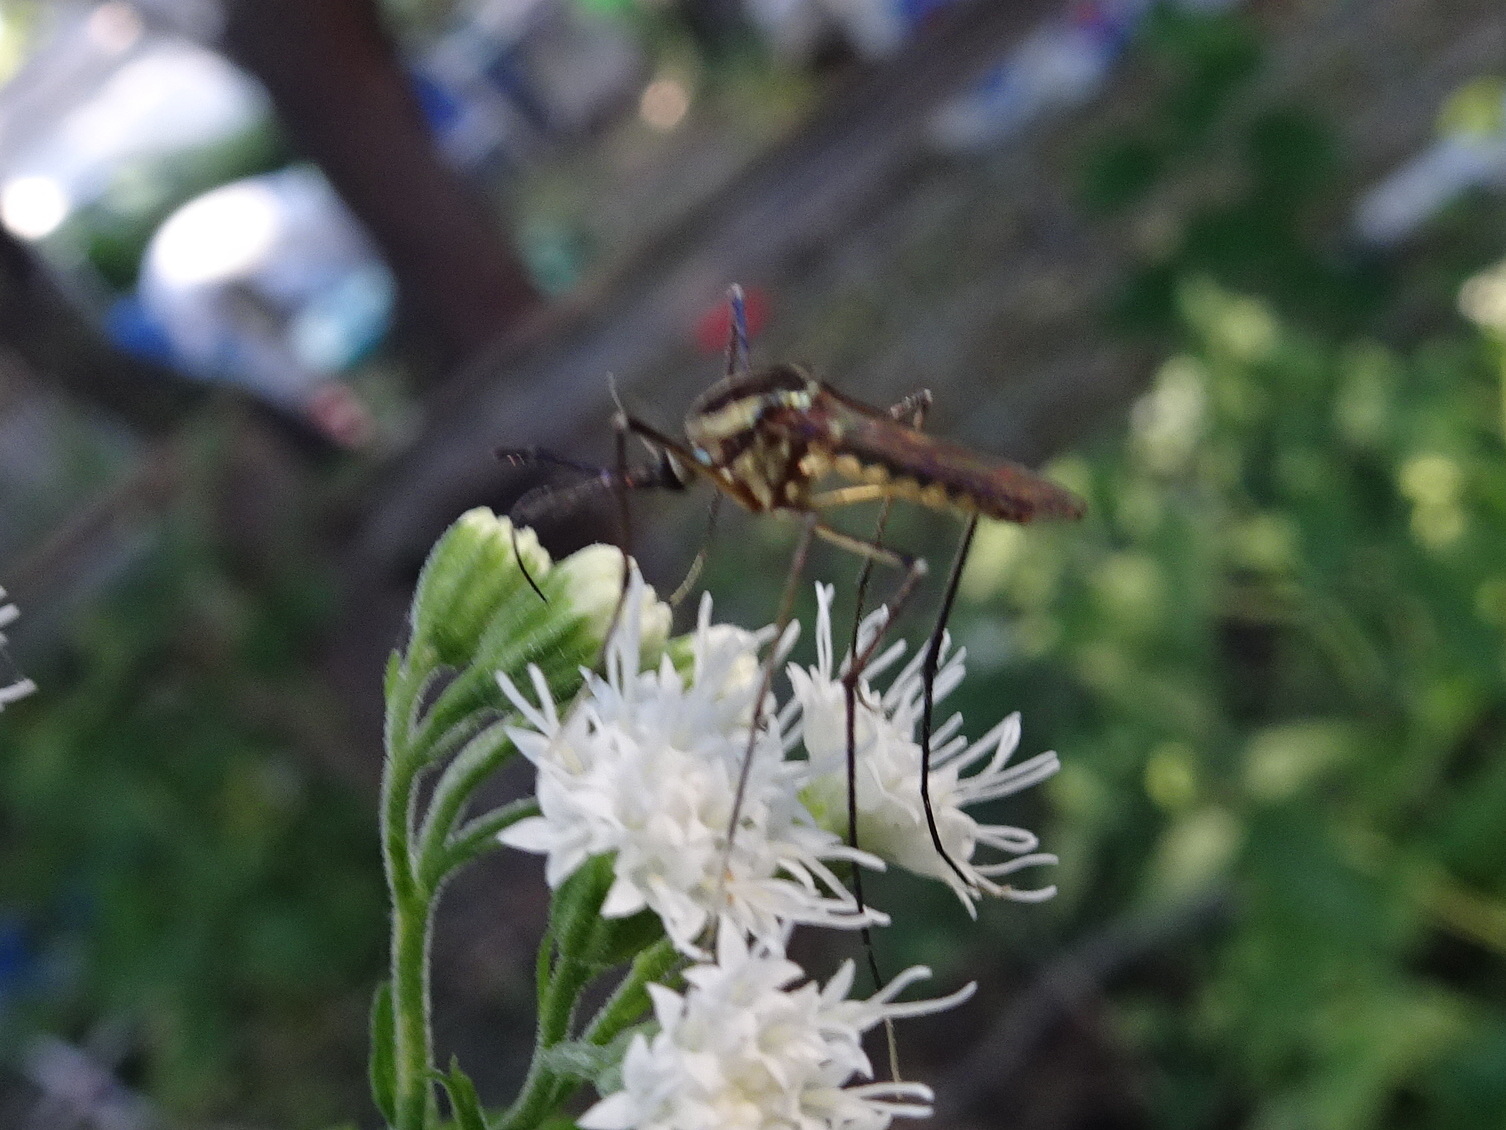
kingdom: Animalia
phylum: Arthropoda
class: Insecta
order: Diptera
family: Culicidae
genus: Toxorhynchites
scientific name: Toxorhynchites rutilus
